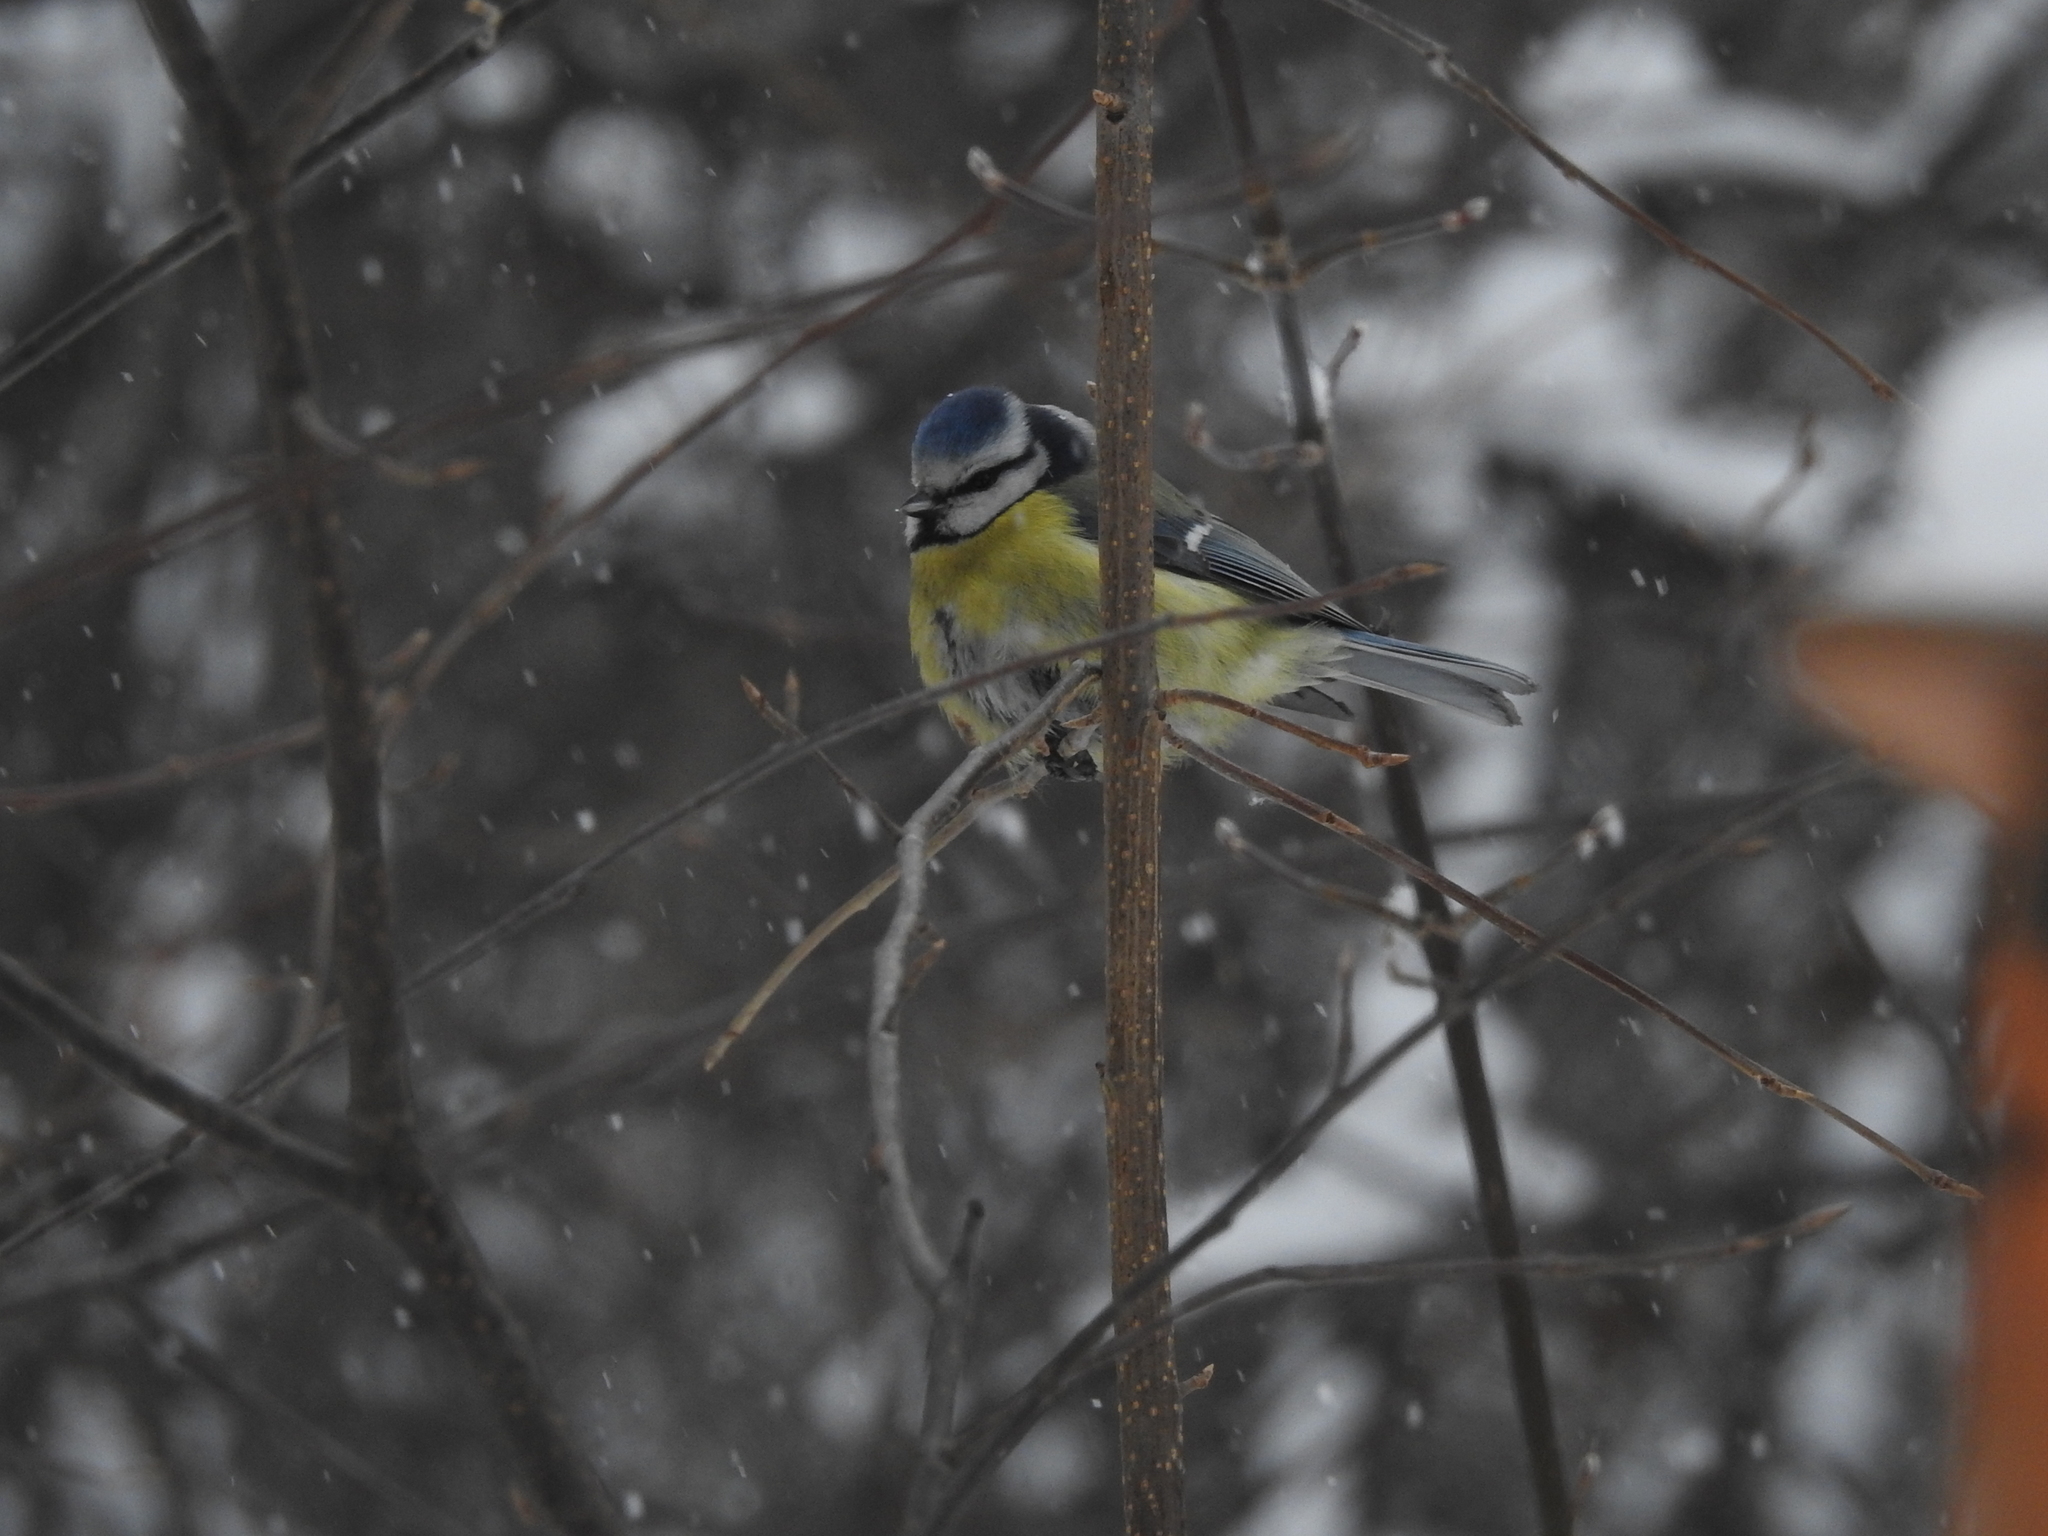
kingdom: Animalia
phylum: Chordata
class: Aves
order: Passeriformes
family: Paridae
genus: Cyanistes
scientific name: Cyanistes caeruleus
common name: Eurasian blue tit
